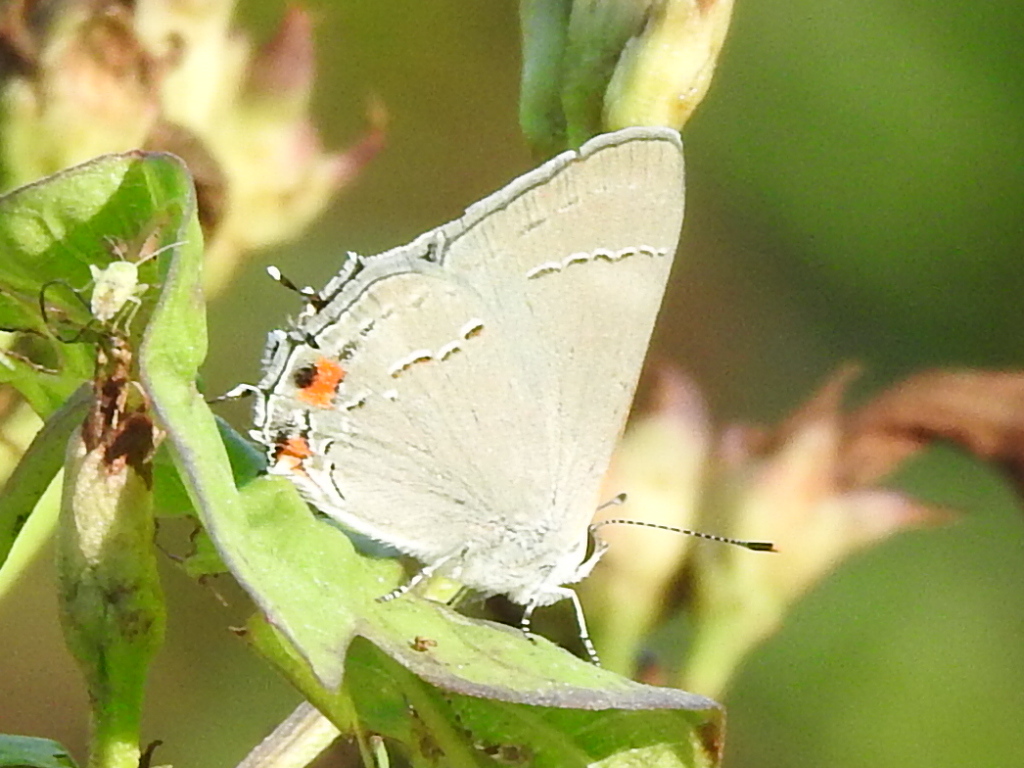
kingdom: Animalia
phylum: Arthropoda
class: Insecta
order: Lepidoptera
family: Lycaenidae
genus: Strymon
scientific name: Strymon melinus
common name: Gray hairstreak
